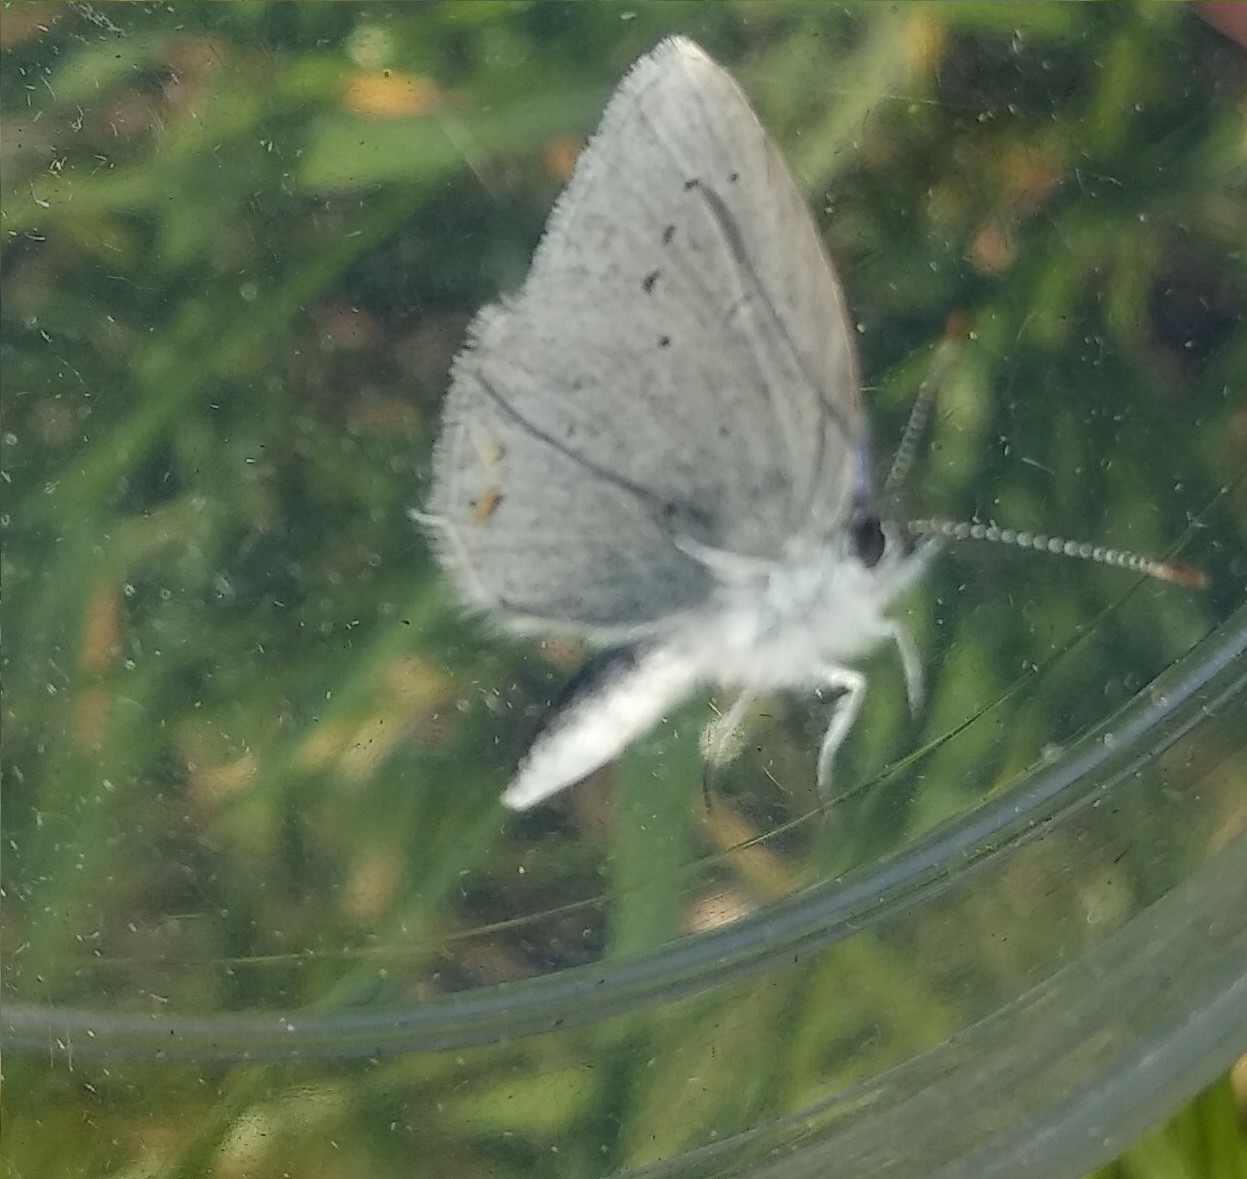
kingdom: Animalia
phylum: Arthropoda
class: Insecta
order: Lepidoptera
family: Lycaenidae
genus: Elkalyce
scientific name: Elkalyce argiades
